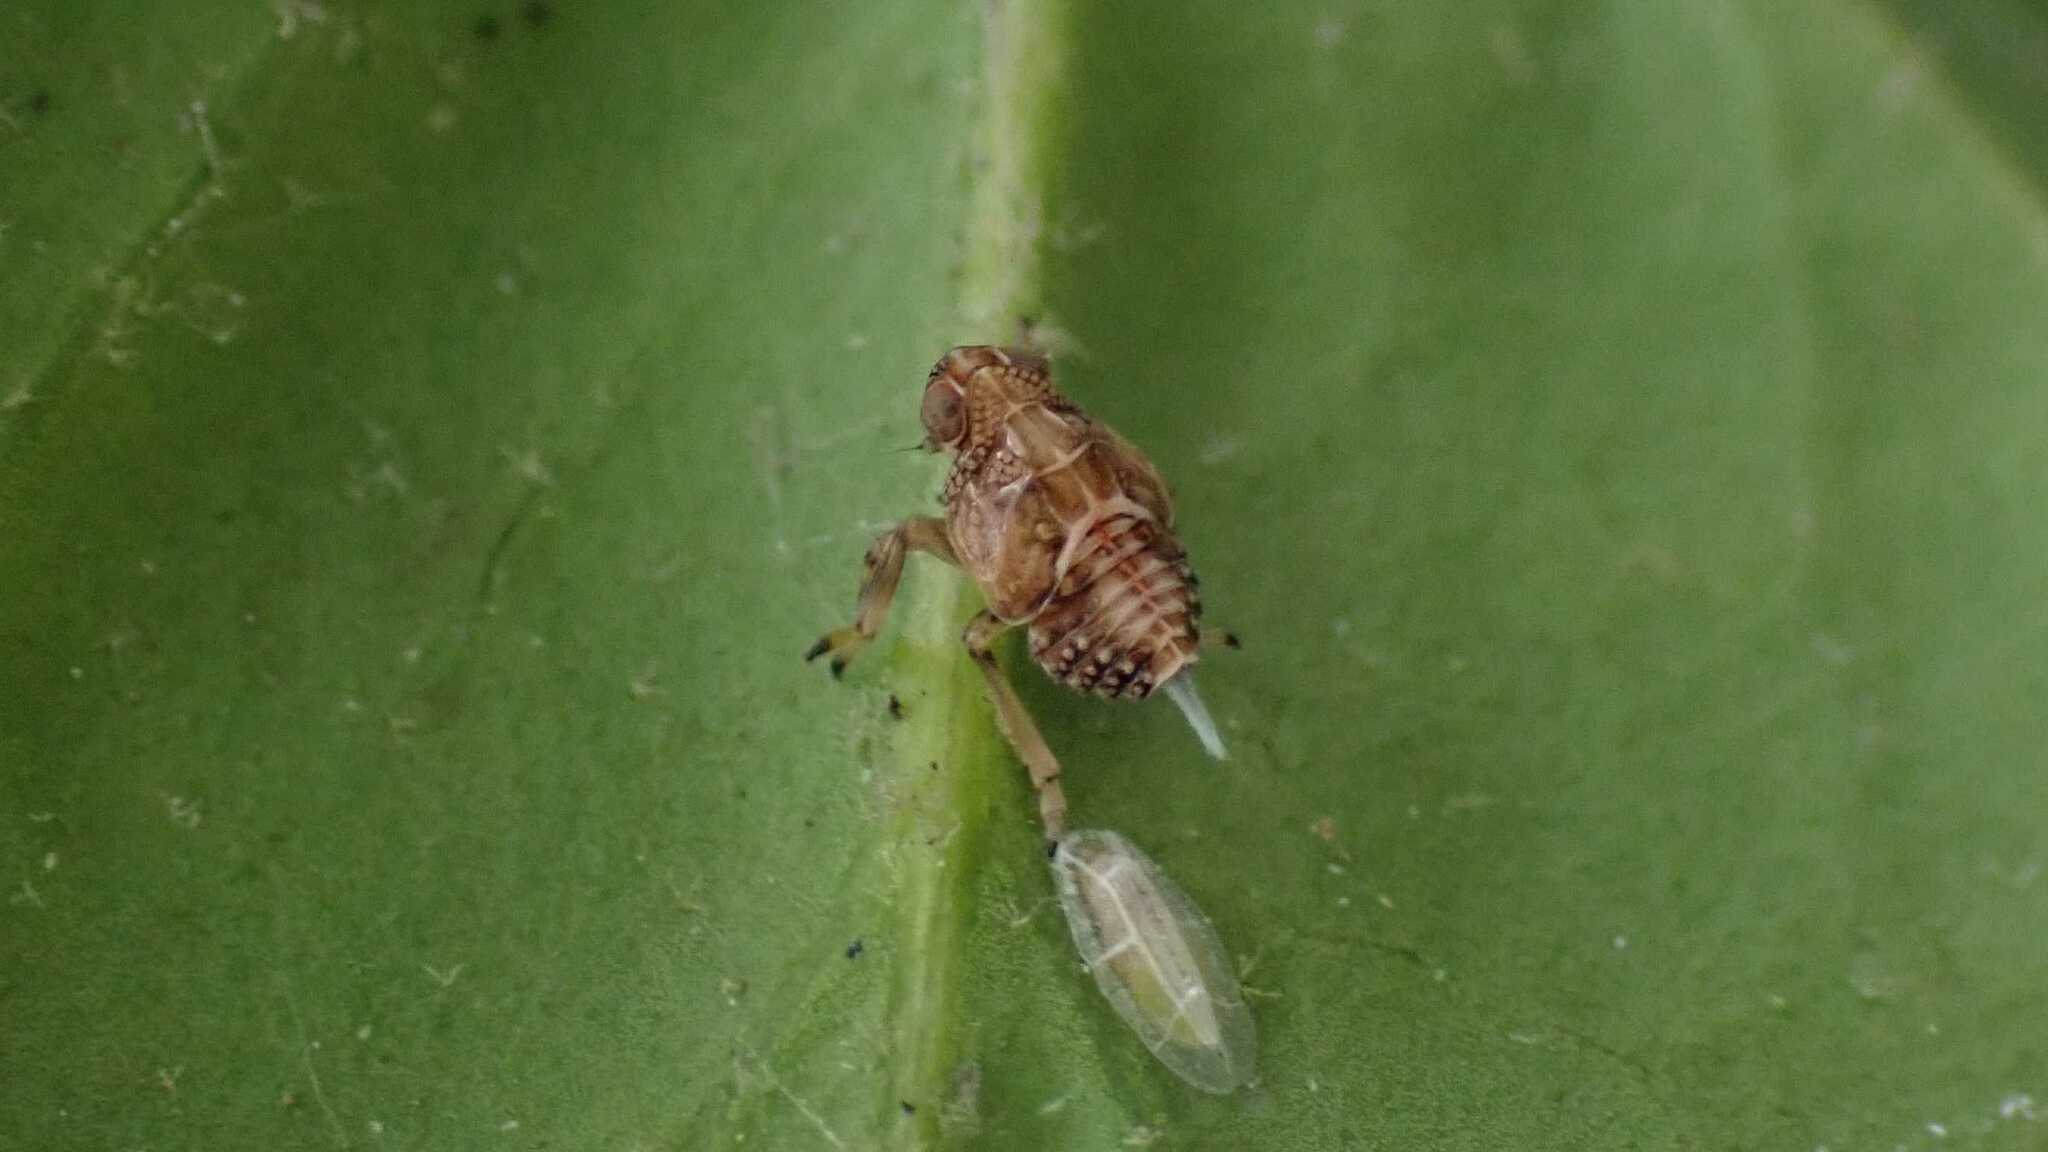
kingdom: Animalia
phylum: Arthropoda
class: Insecta
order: Hemiptera
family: Issidae
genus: Issus
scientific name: Issus coleoptratus
